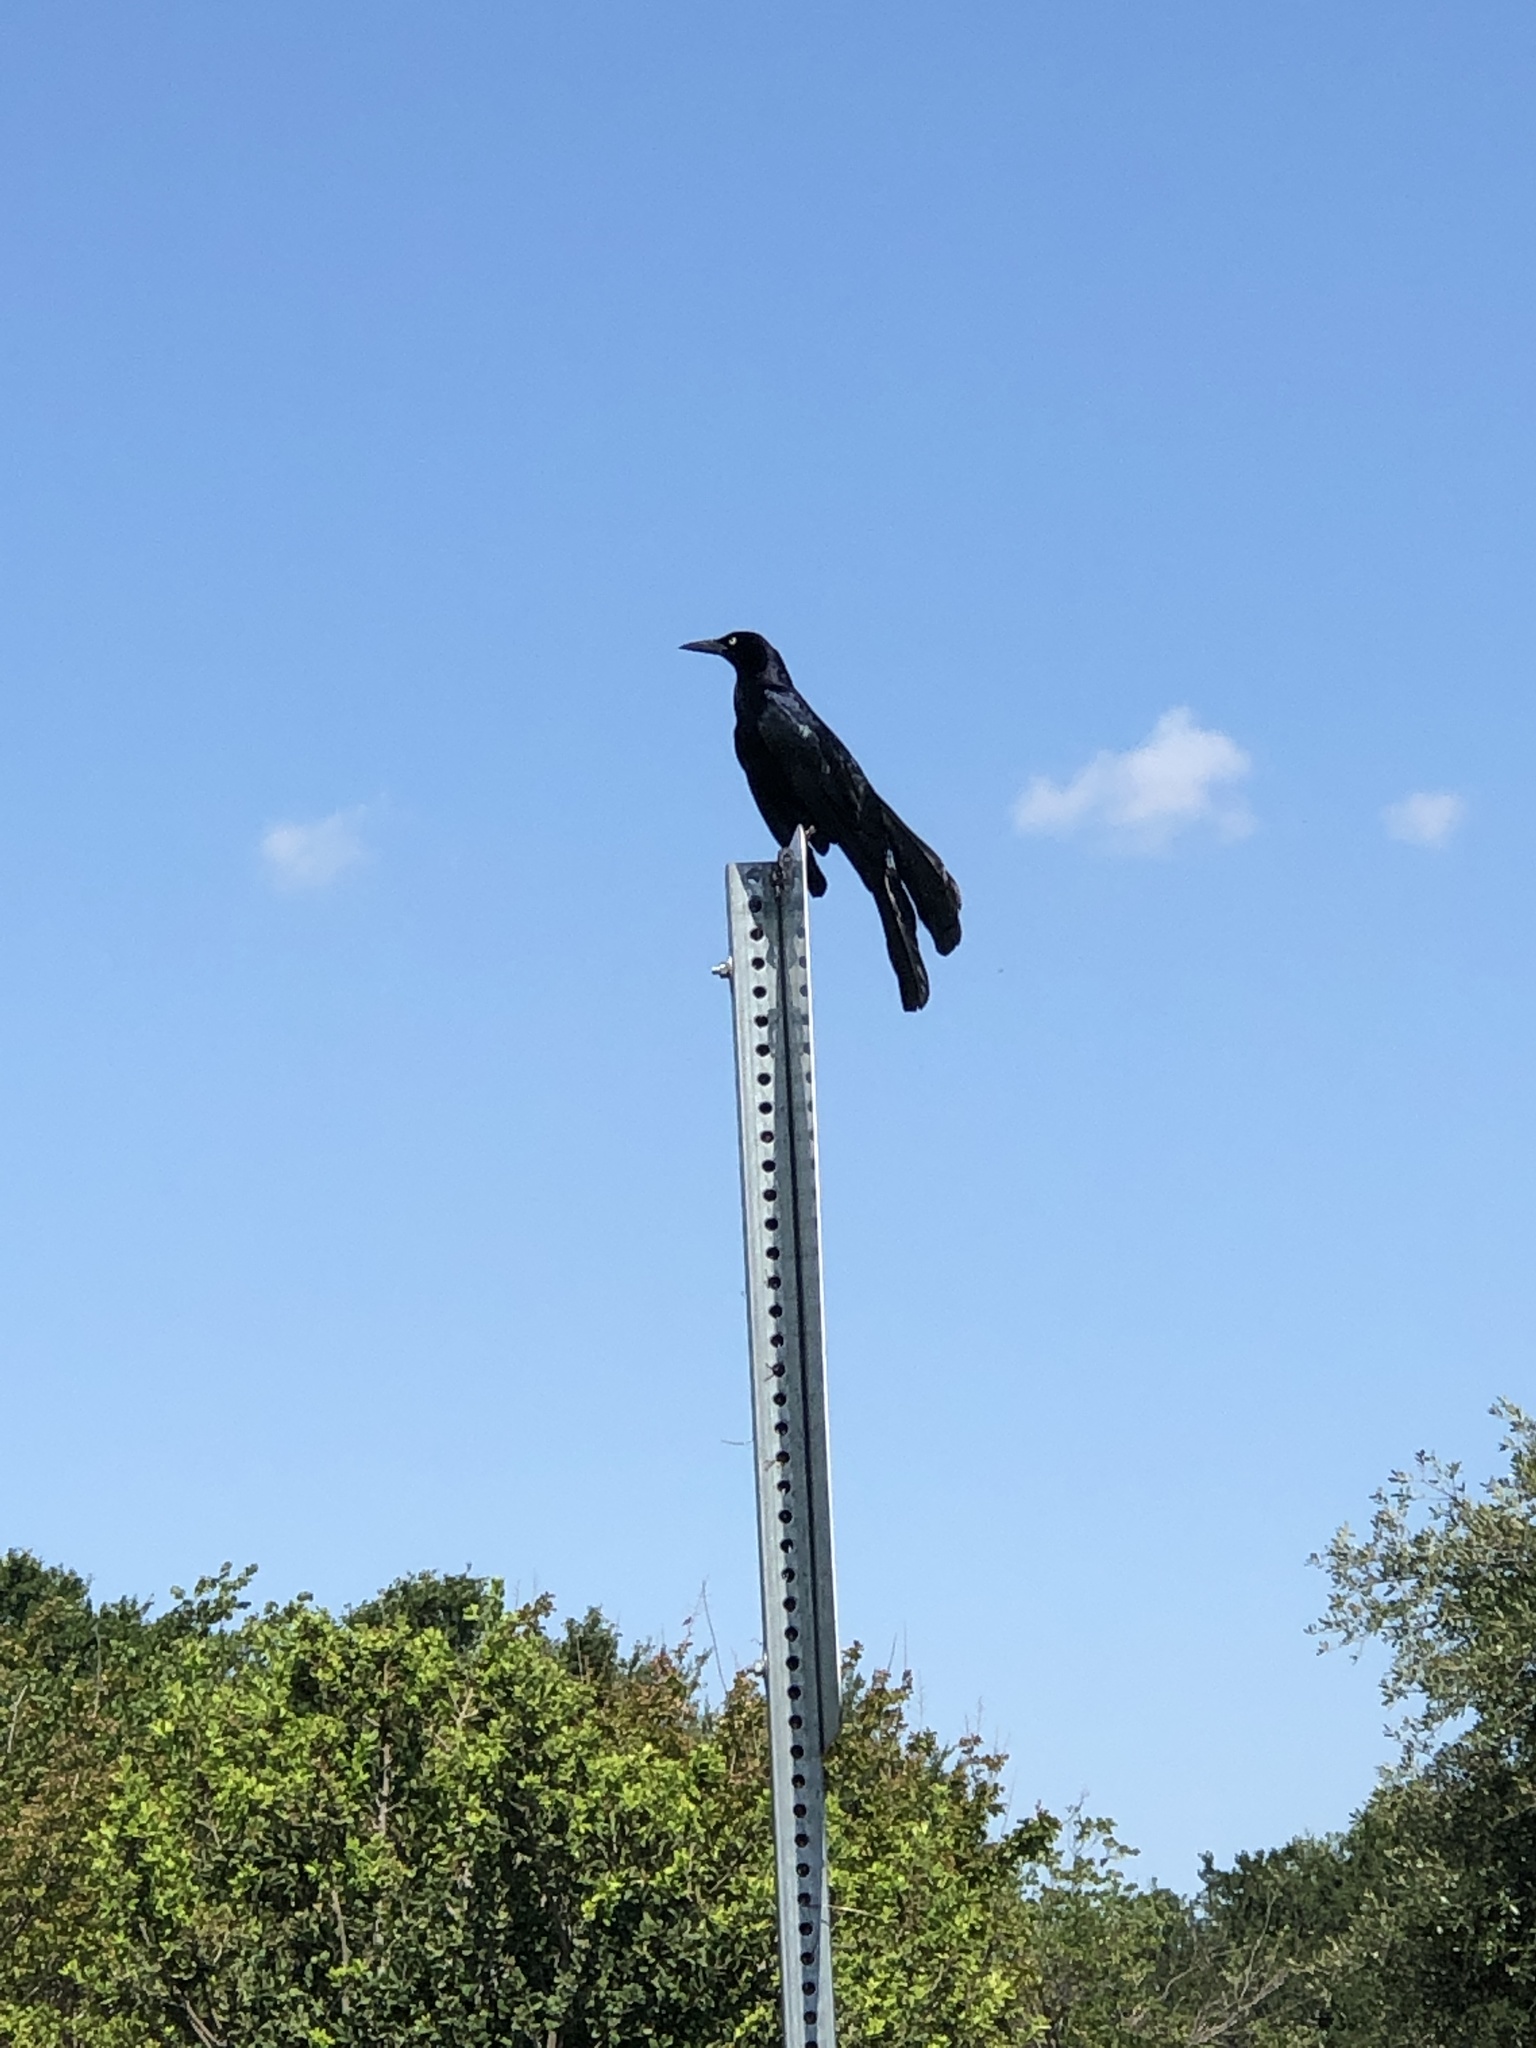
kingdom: Animalia
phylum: Chordata
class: Aves
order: Passeriformes
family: Icteridae
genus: Quiscalus
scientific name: Quiscalus mexicanus
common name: Great-tailed grackle
